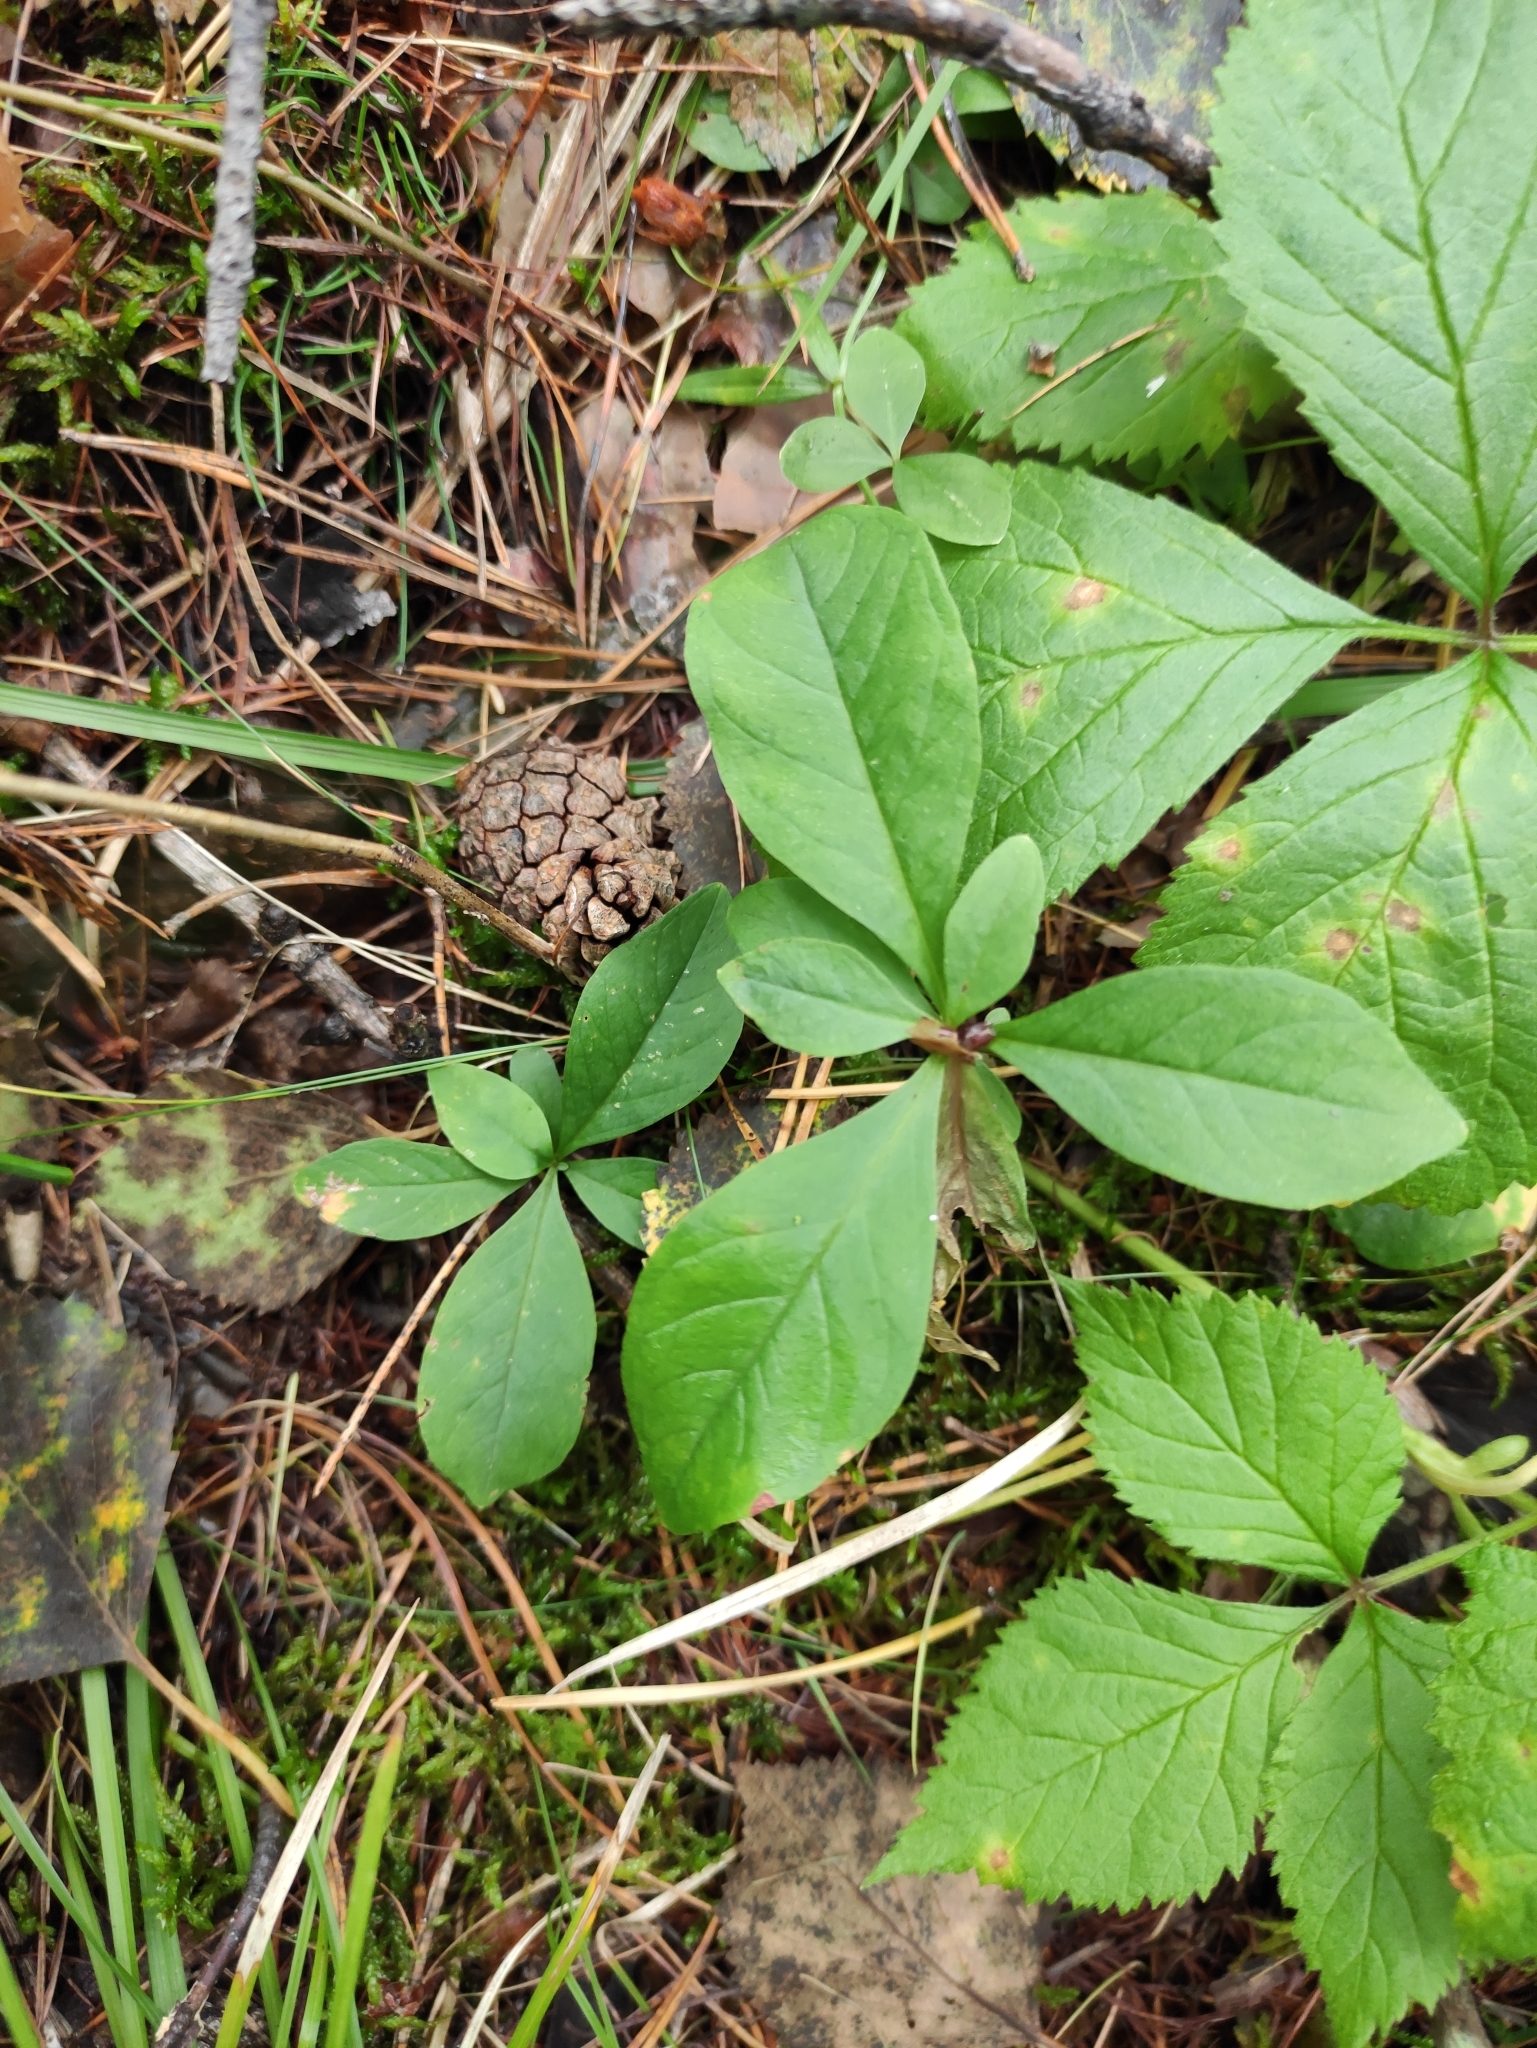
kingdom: Plantae
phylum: Tracheophyta
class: Magnoliopsida
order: Ericales
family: Primulaceae
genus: Lysimachia
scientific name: Lysimachia europaea
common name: Arctic starflower
